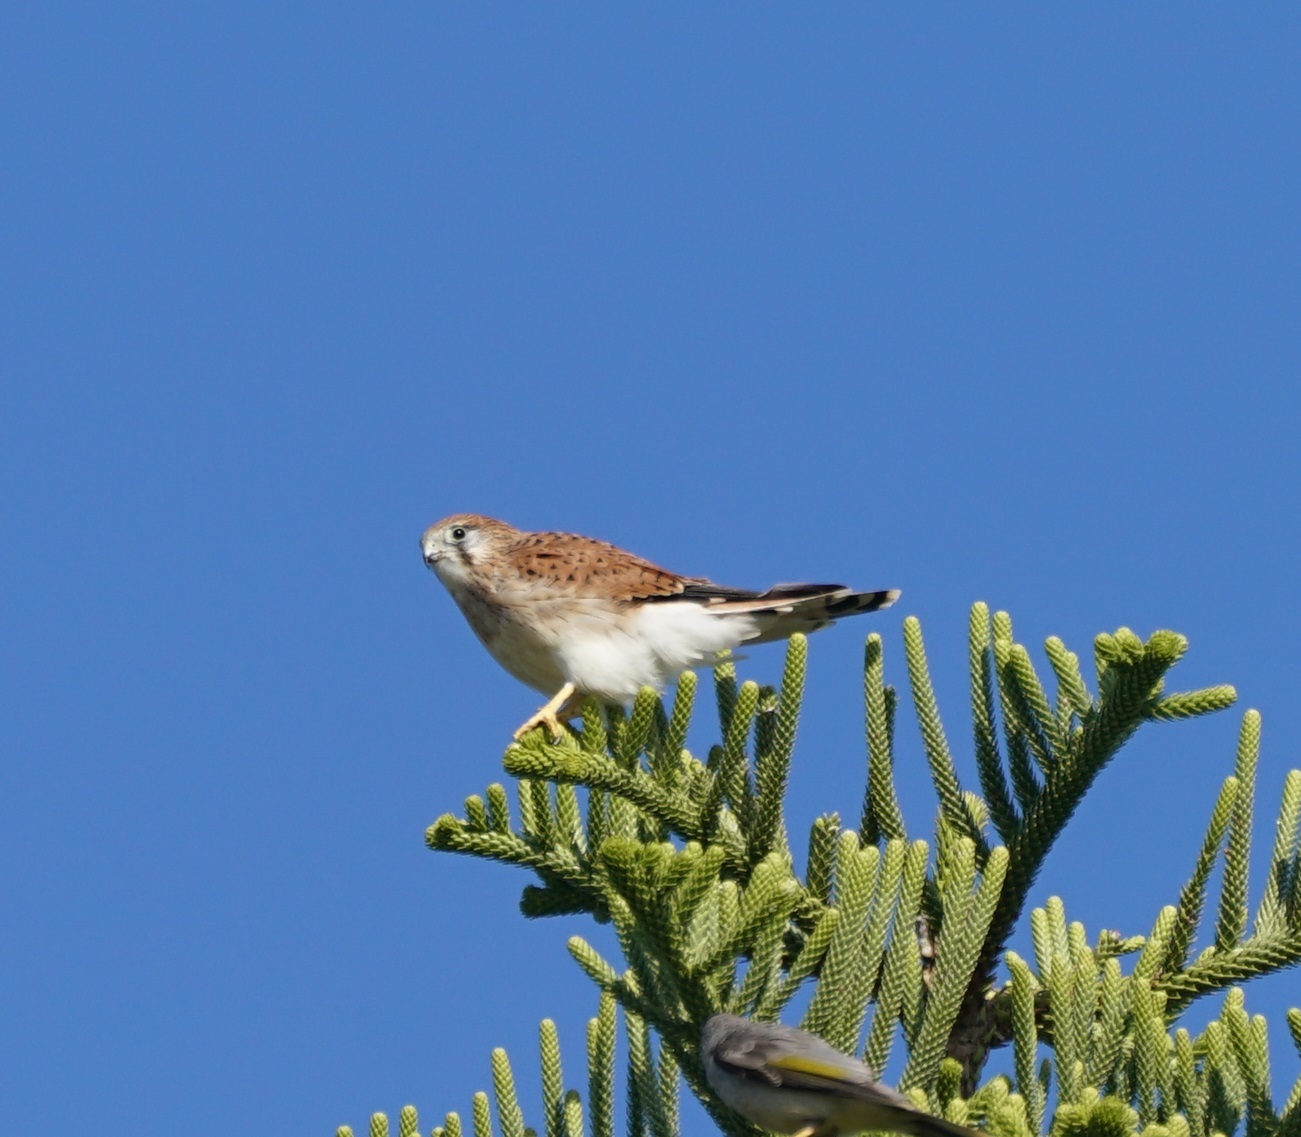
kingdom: Animalia
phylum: Chordata
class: Aves
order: Falconiformes
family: Falconidae
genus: Falco
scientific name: Falco cenchroides
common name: Nankeen kestrel
